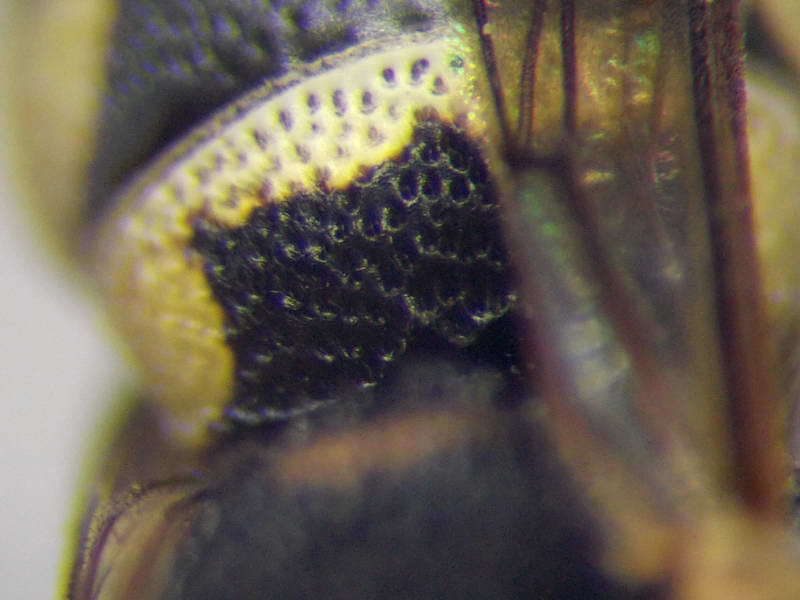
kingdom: Animalia
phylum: Arthropoda
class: Insecta
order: Hymenoptera
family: Eumenidae
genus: Eustenancistrocerus
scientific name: Eustenancistrocerus amadanensis
